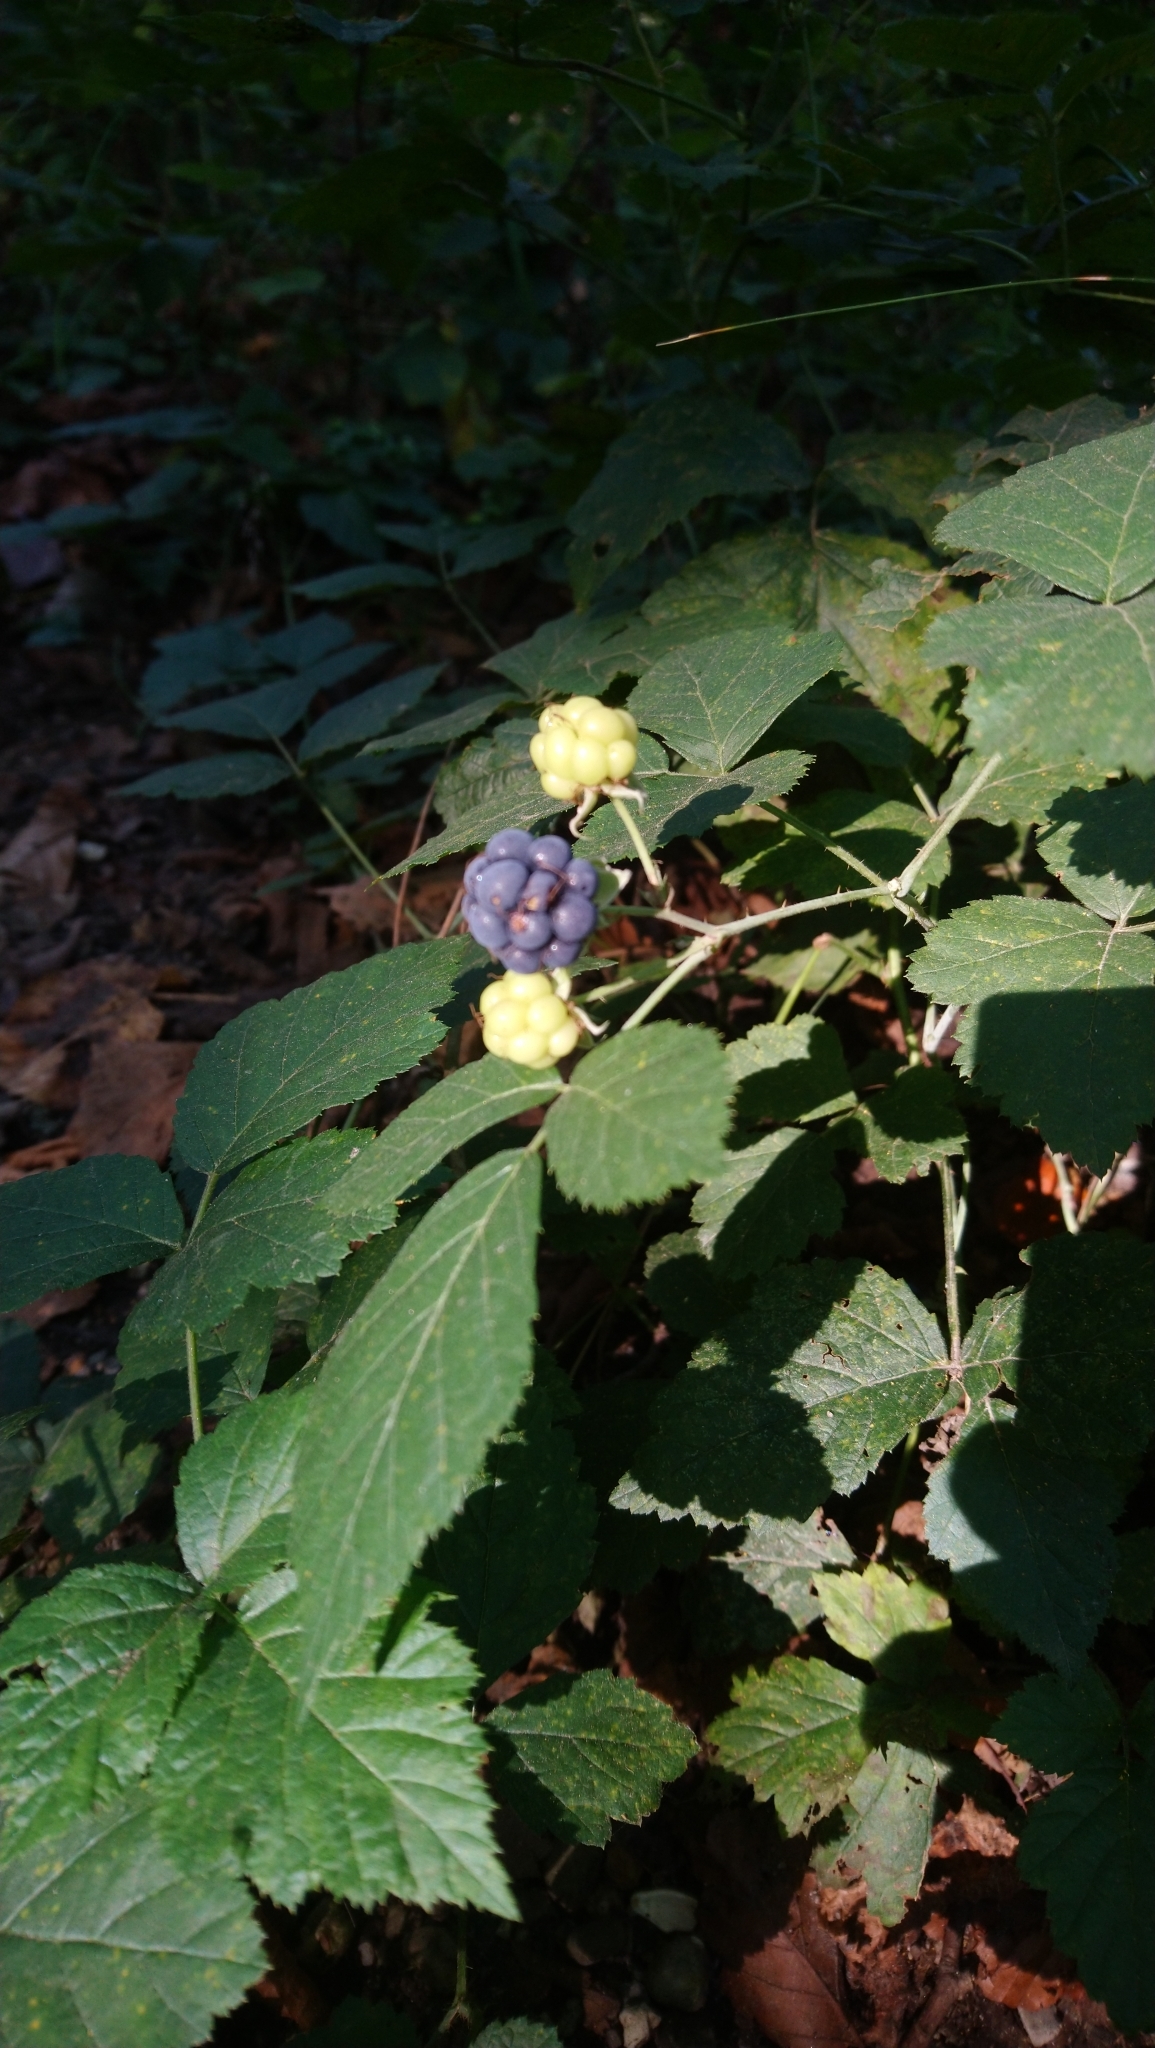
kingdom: Plantae
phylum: Tracheophyta
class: Magnoliopsida
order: Rosales
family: Rosaceae
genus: Rubus
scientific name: Rubus caesius
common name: Dewberry
